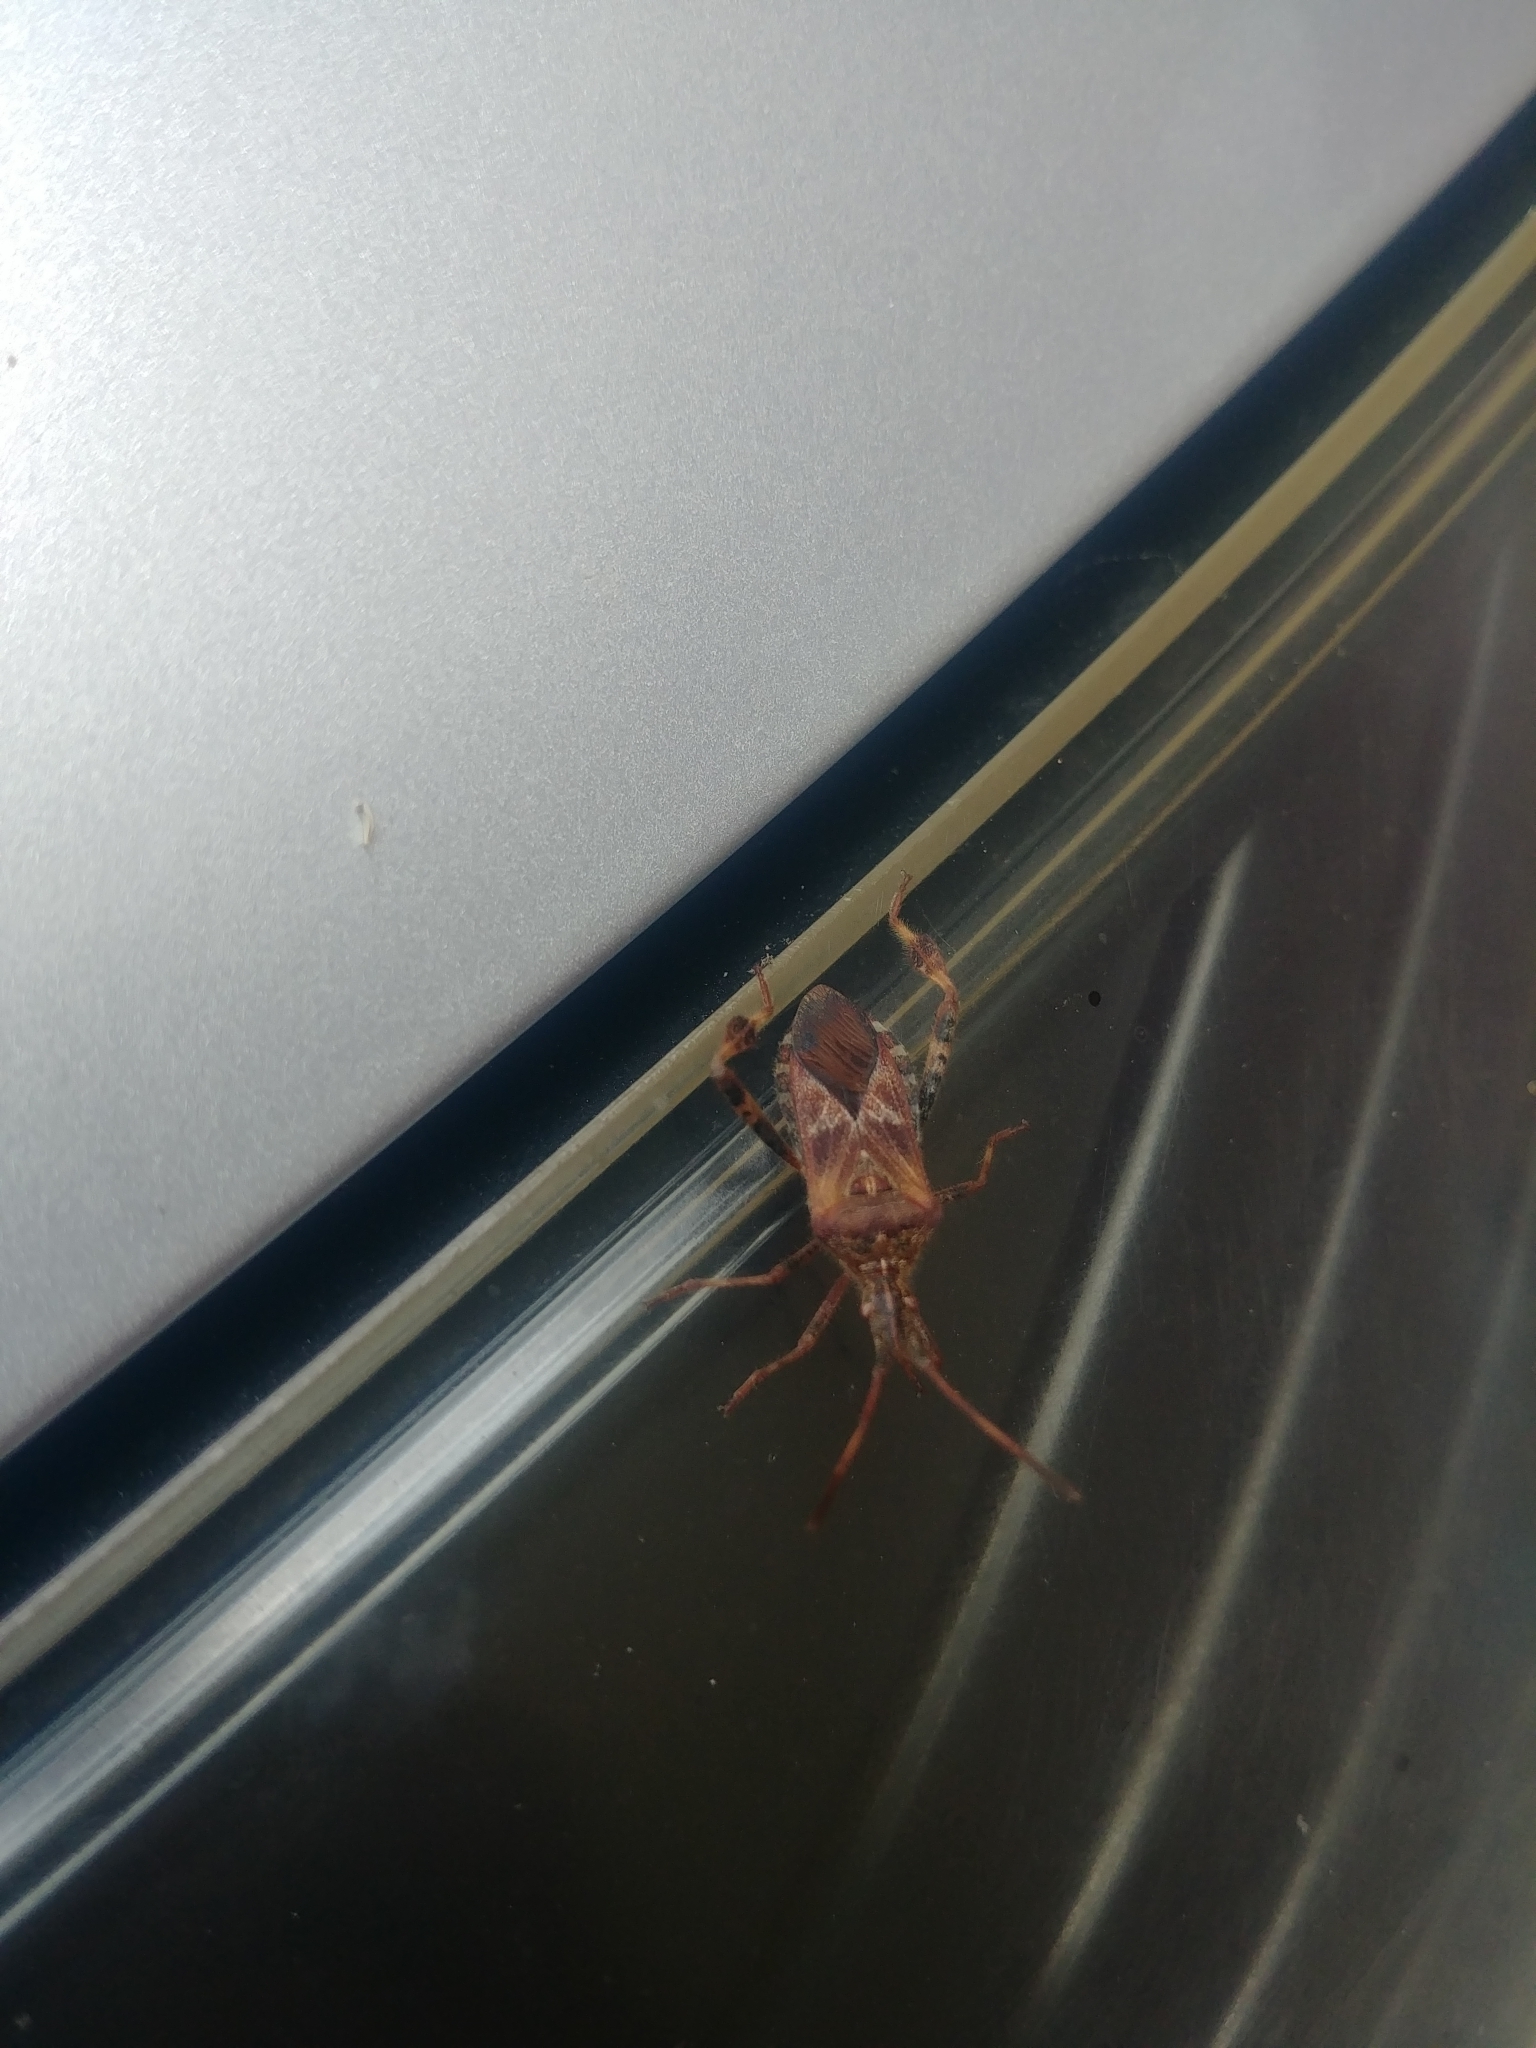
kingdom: Animalia
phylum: Arthropoda
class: Insecta
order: Hemiptera
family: Coreidae
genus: Leptoglossus
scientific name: Leptoglossus occidentalis
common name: Western conifer-seed bug
